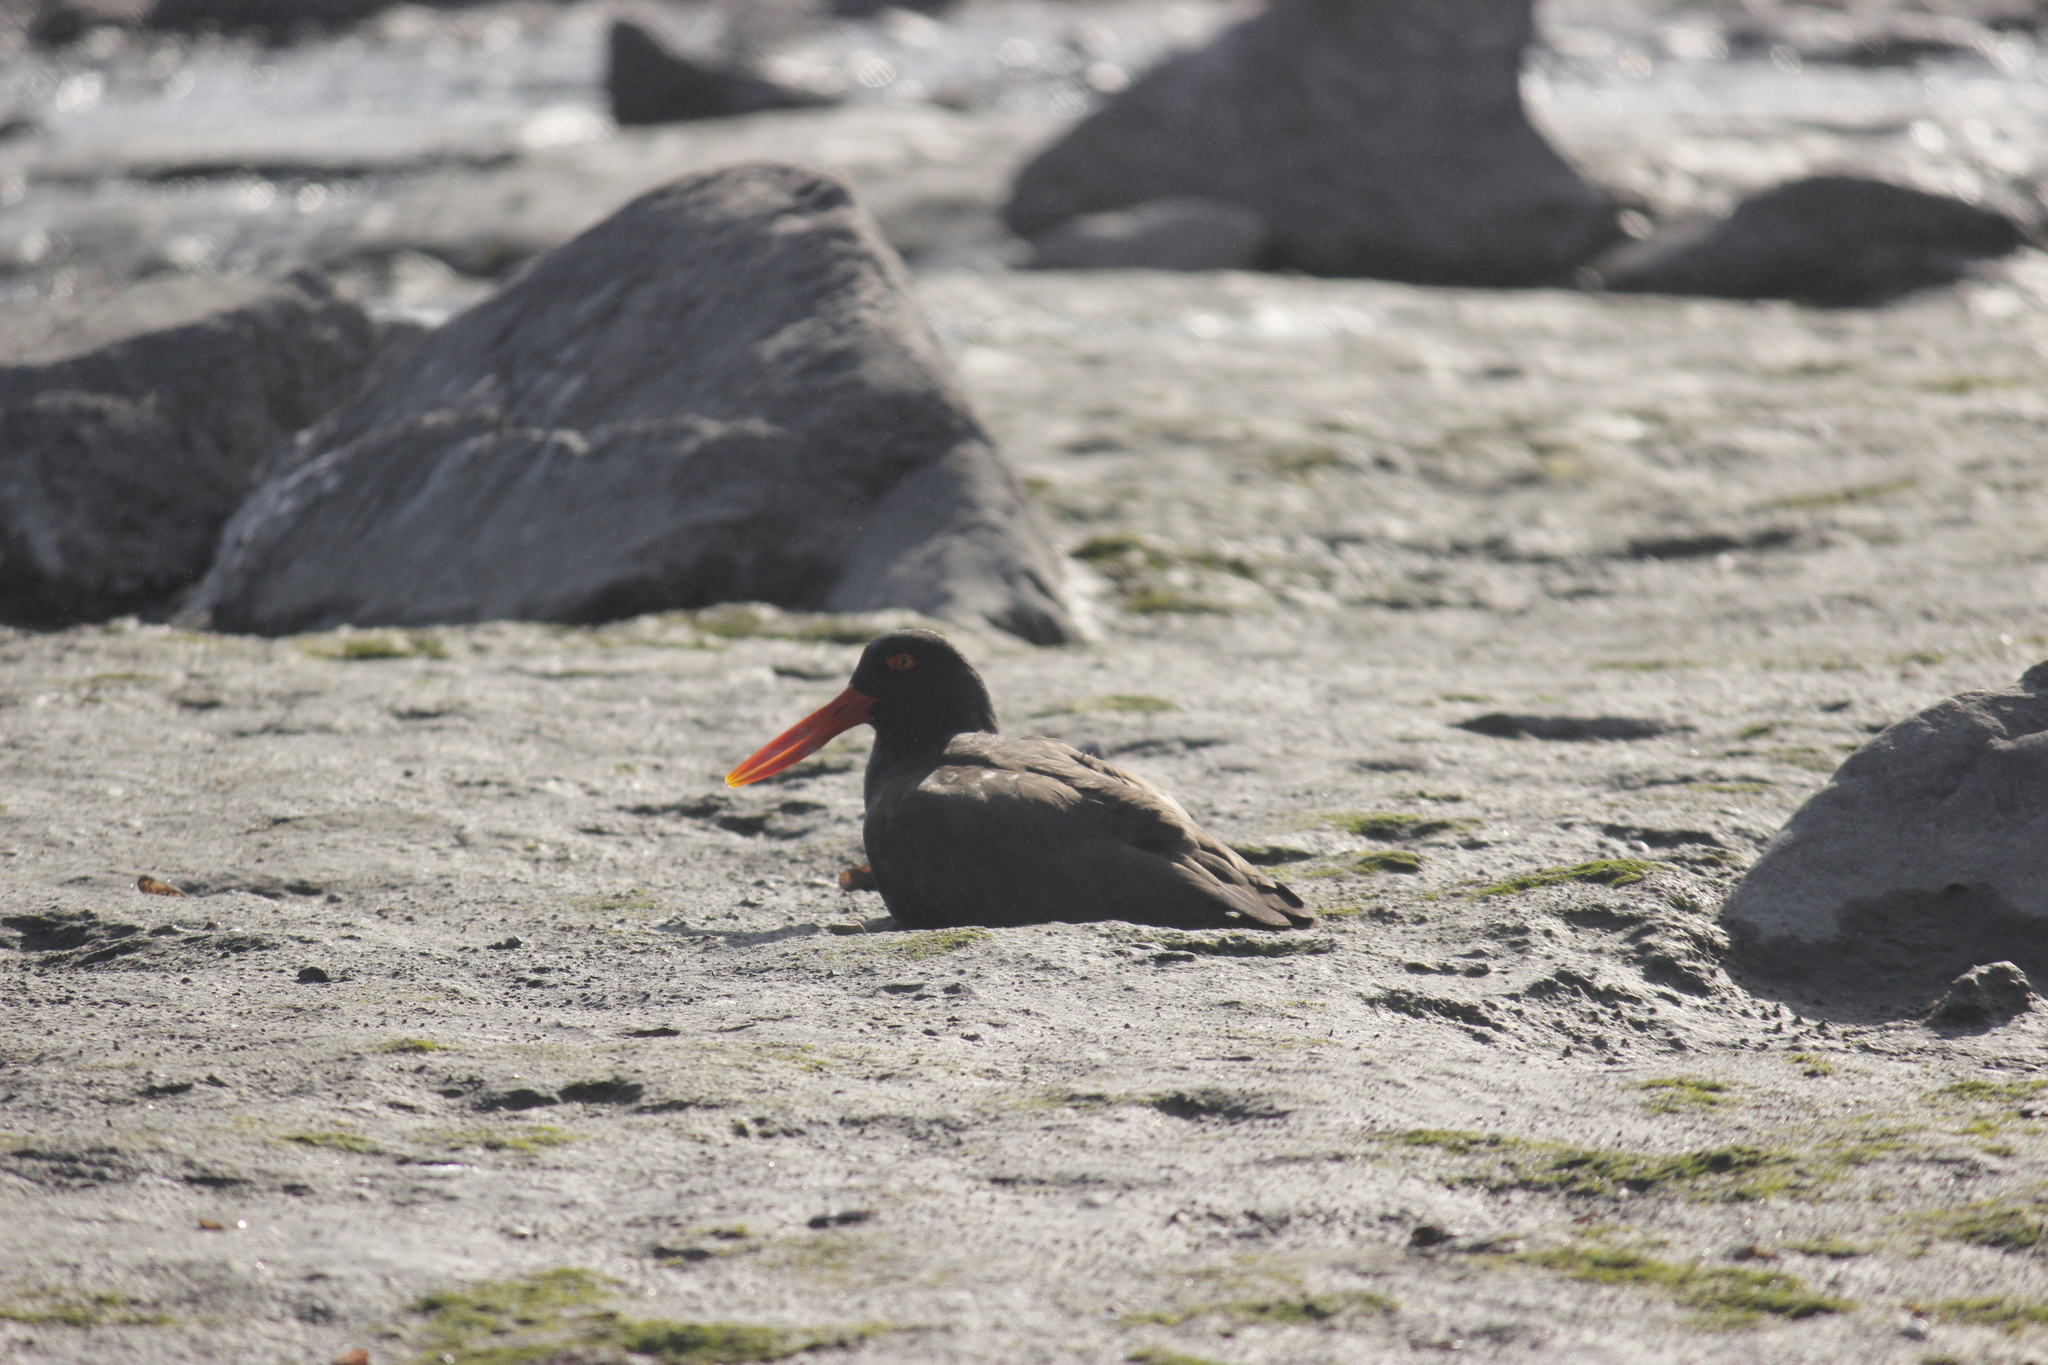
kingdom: Animalia
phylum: Chordata
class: Aves
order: Charadriiformes
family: Haematopodidae
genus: Haematopus
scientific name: Haematopus ater
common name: Blackish oystercatcher
